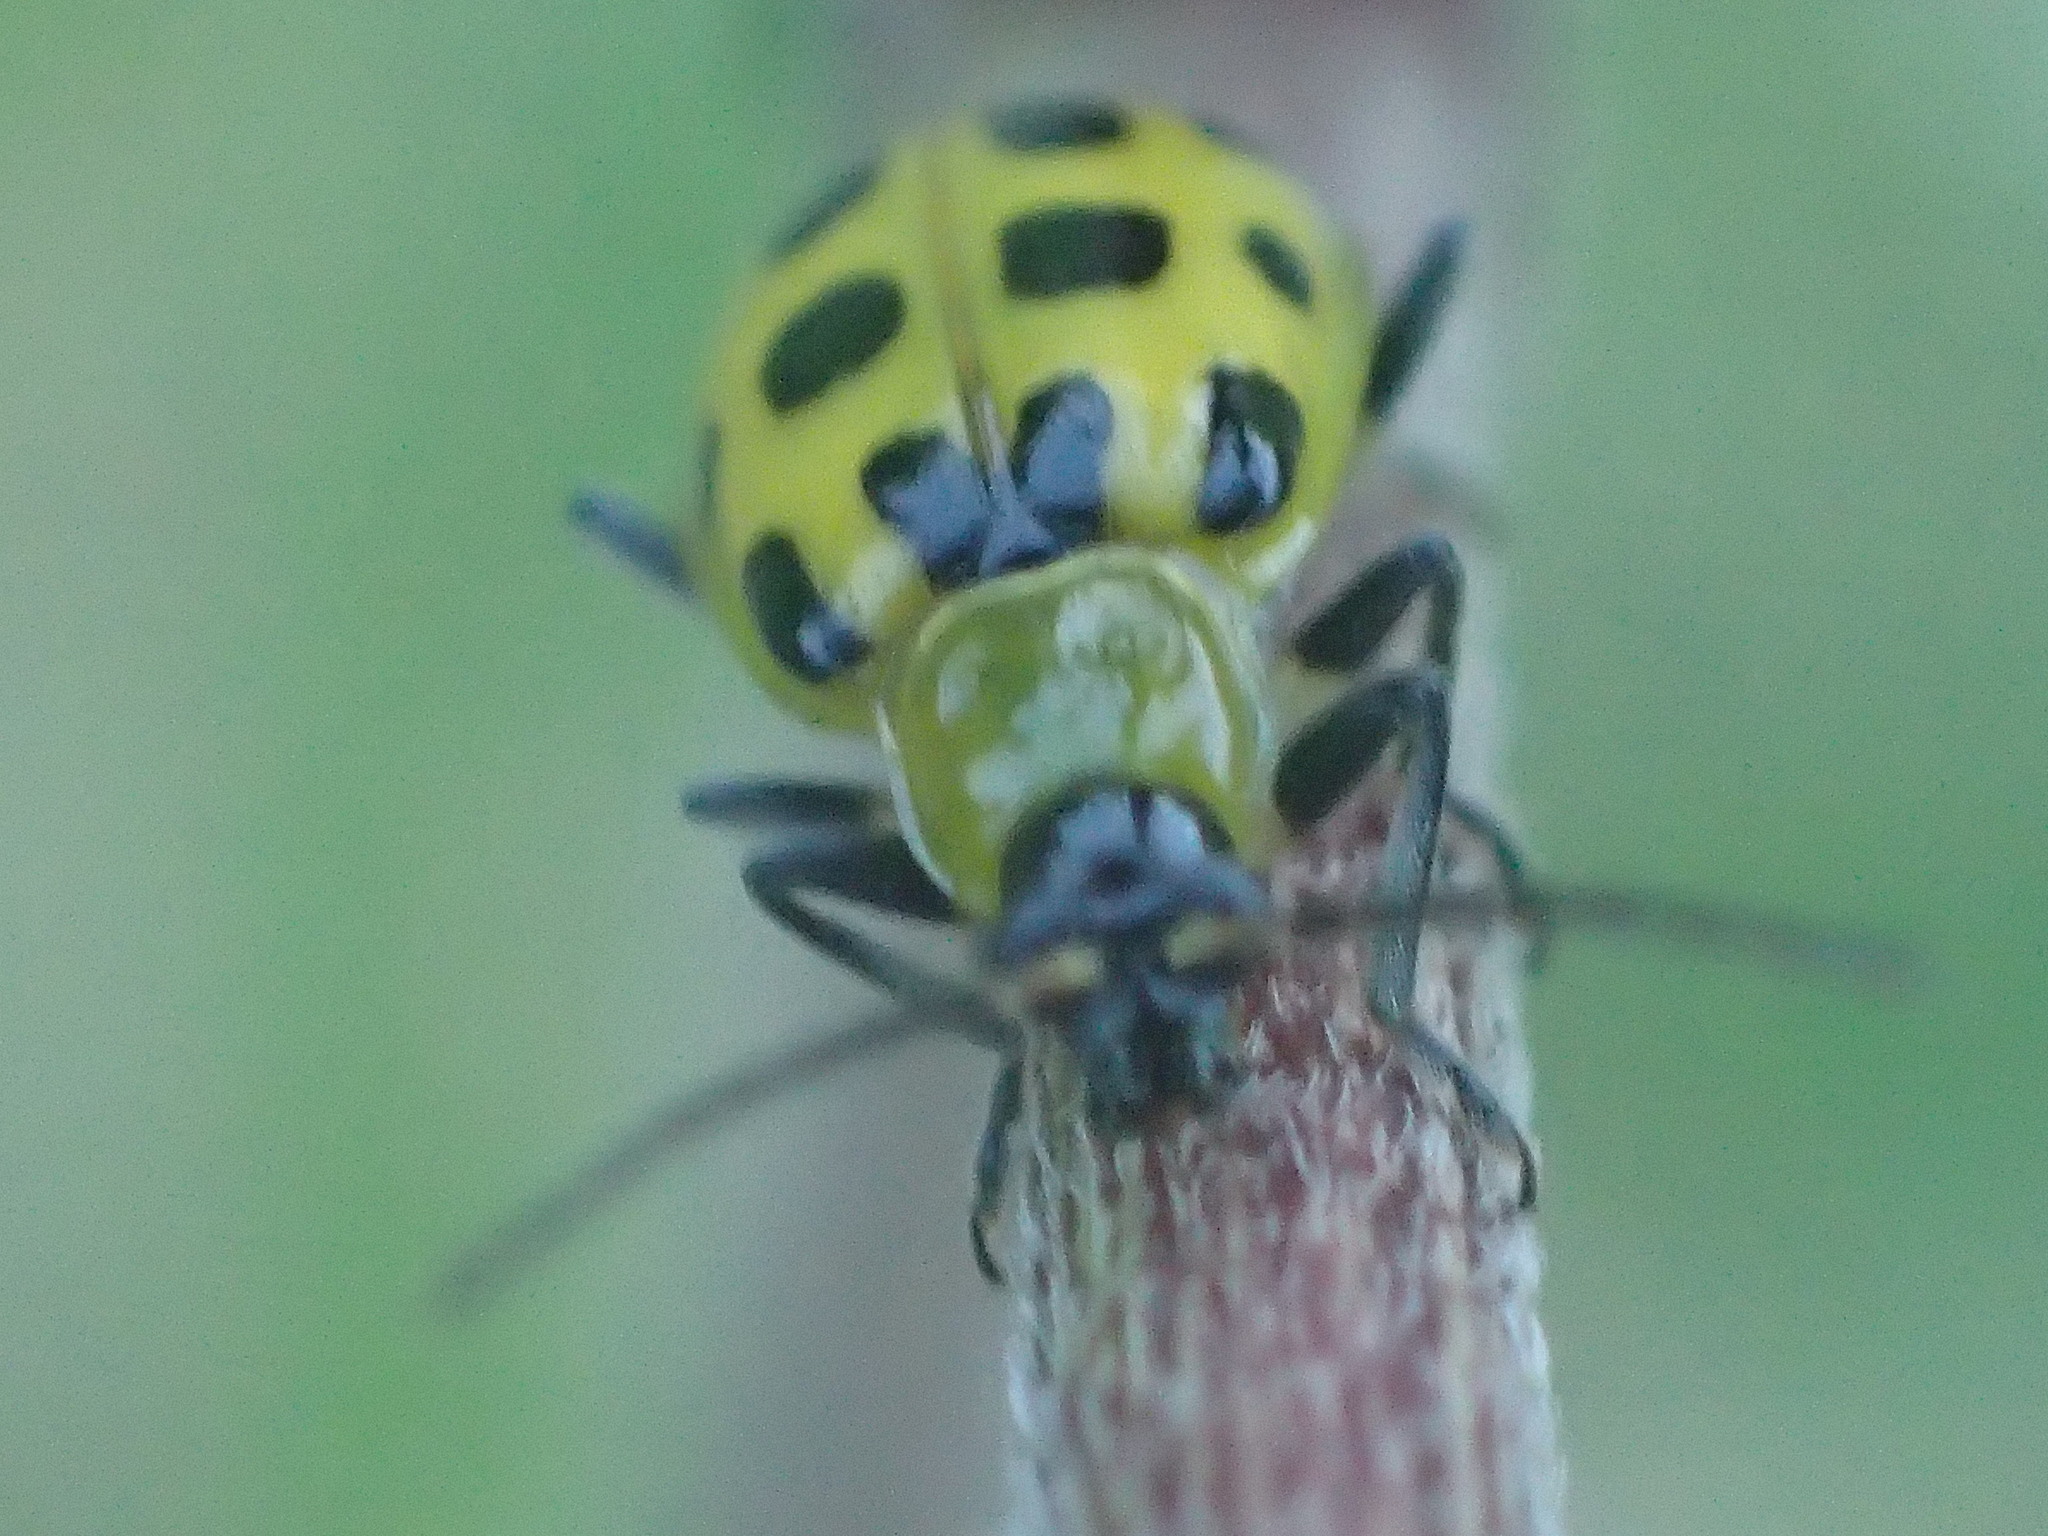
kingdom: Animalia
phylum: Arthropoda
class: Insecta
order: Coleoptera
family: Chrysomelidae
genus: Diabrotica
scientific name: Diabrotica undecimpunctata
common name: Spotted cucumber beetle
